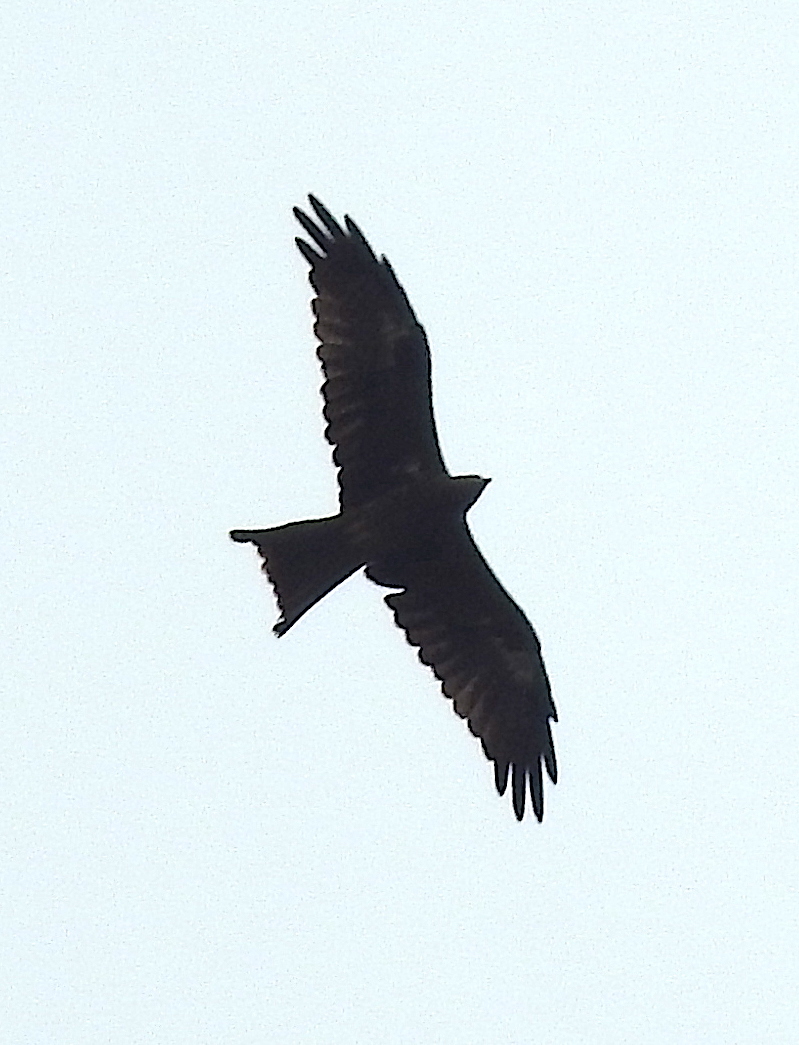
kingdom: Animalia
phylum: Chordata
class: Aves
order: Accipitriformes
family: Accipitridae
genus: Milvus
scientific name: Milvus migrans
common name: Black kite
